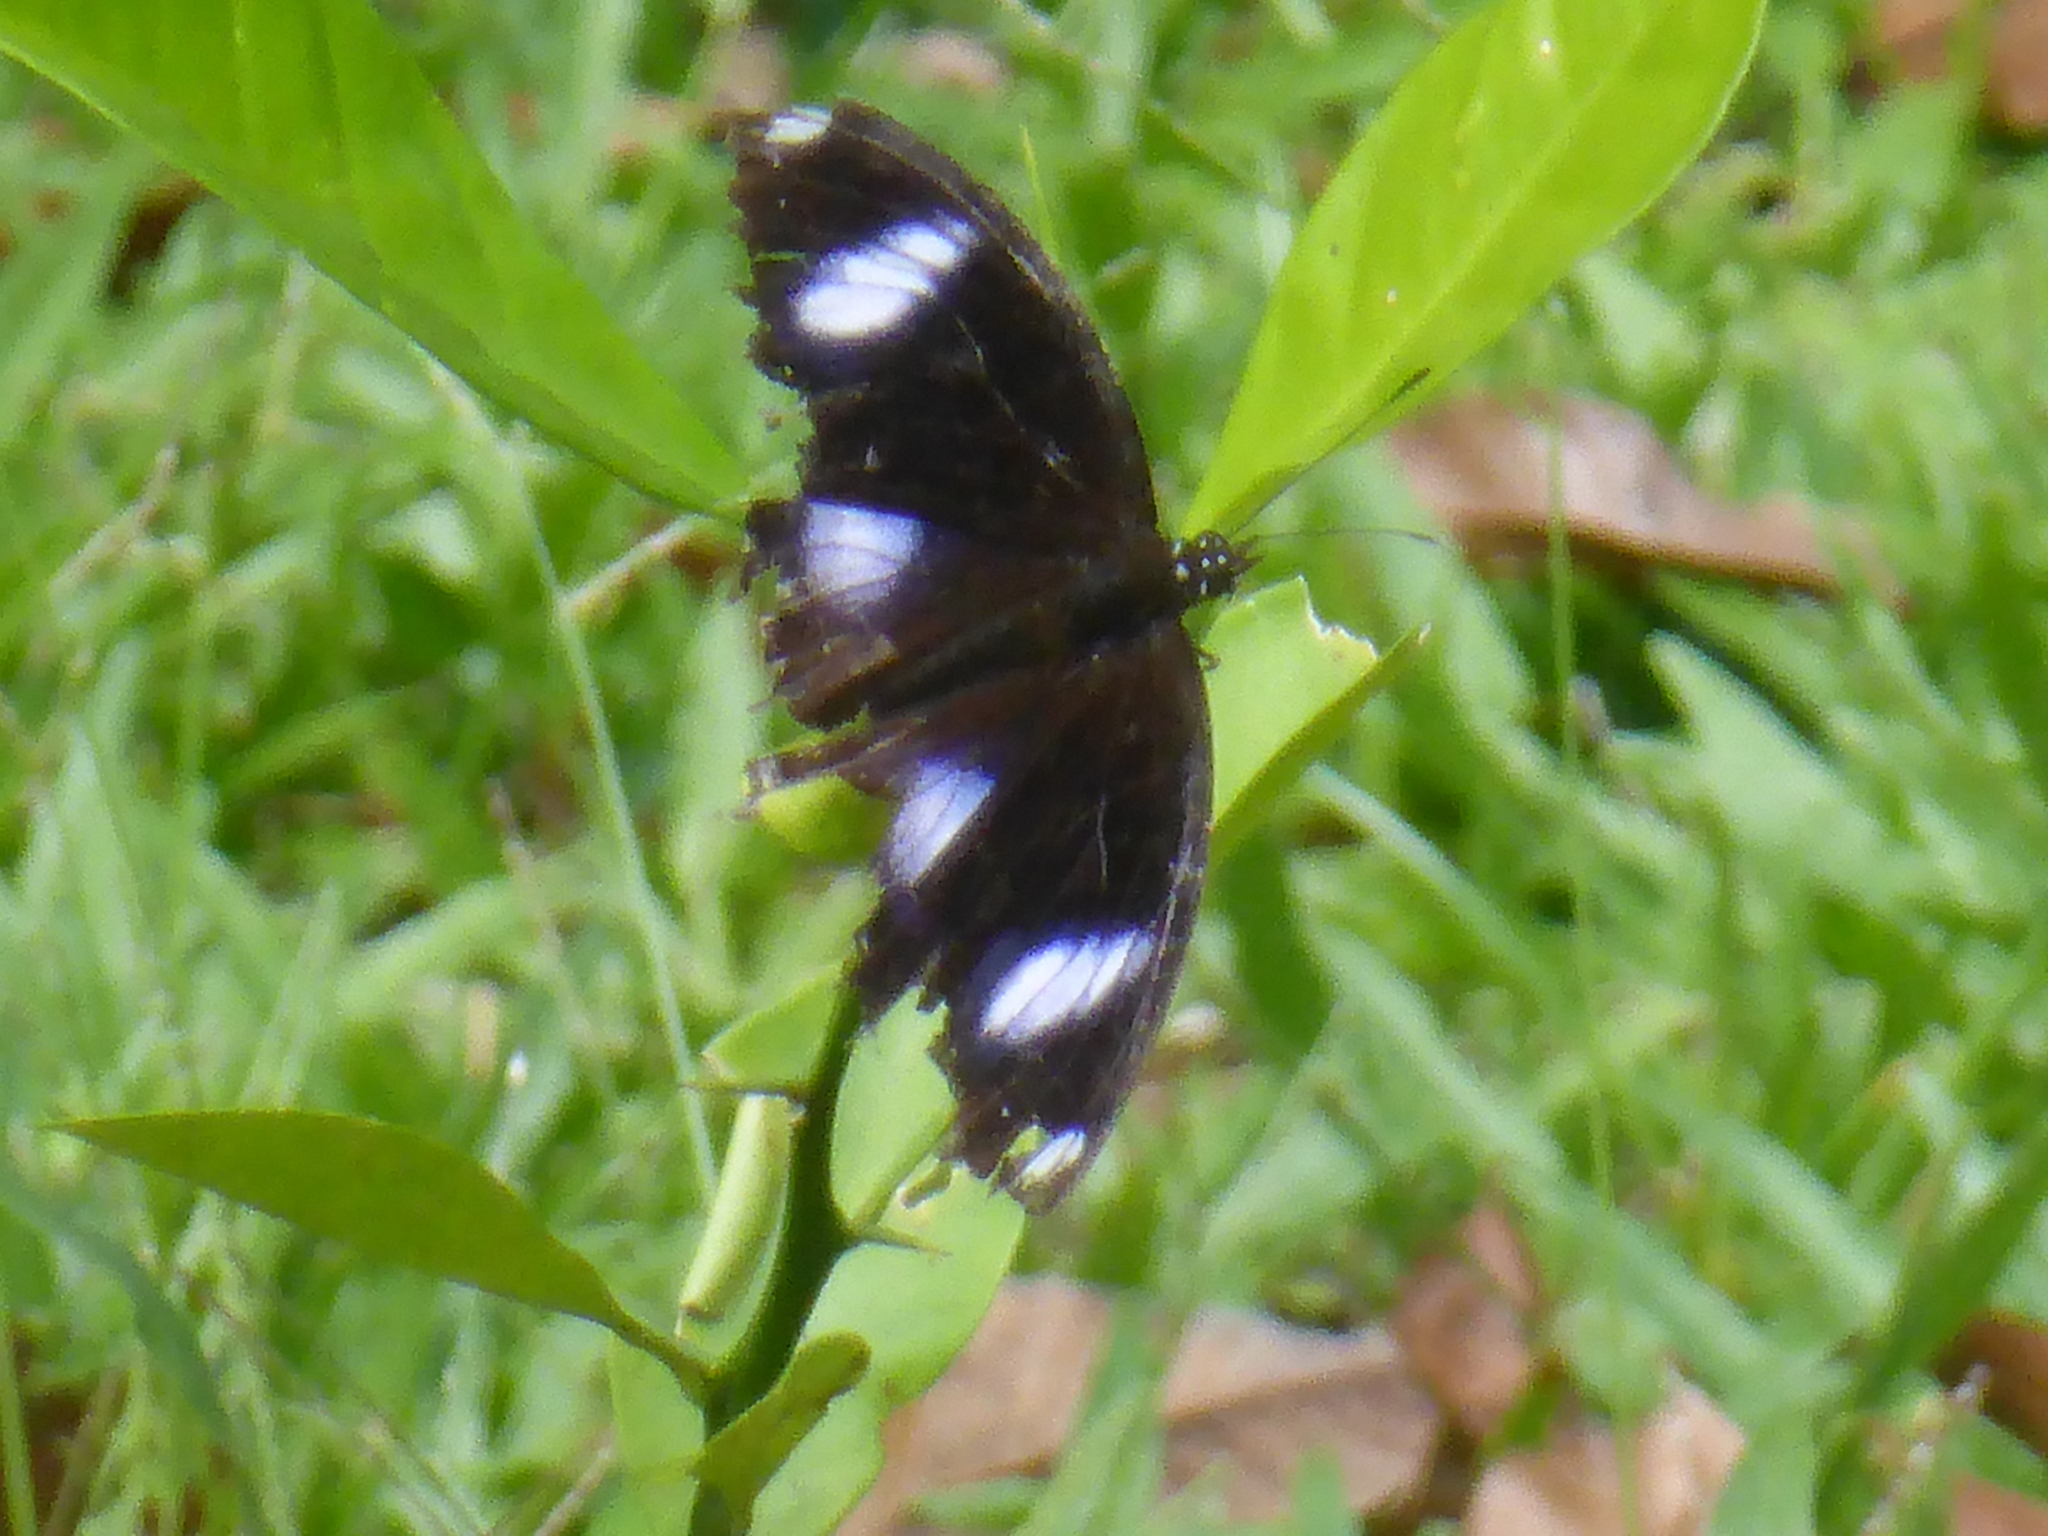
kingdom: Animalia
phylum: Arthropoda
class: Insecta
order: Lepidoptera
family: Nymphalidae
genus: Hypolimnas
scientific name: Hypolimnas bolina
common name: Great eggfly
